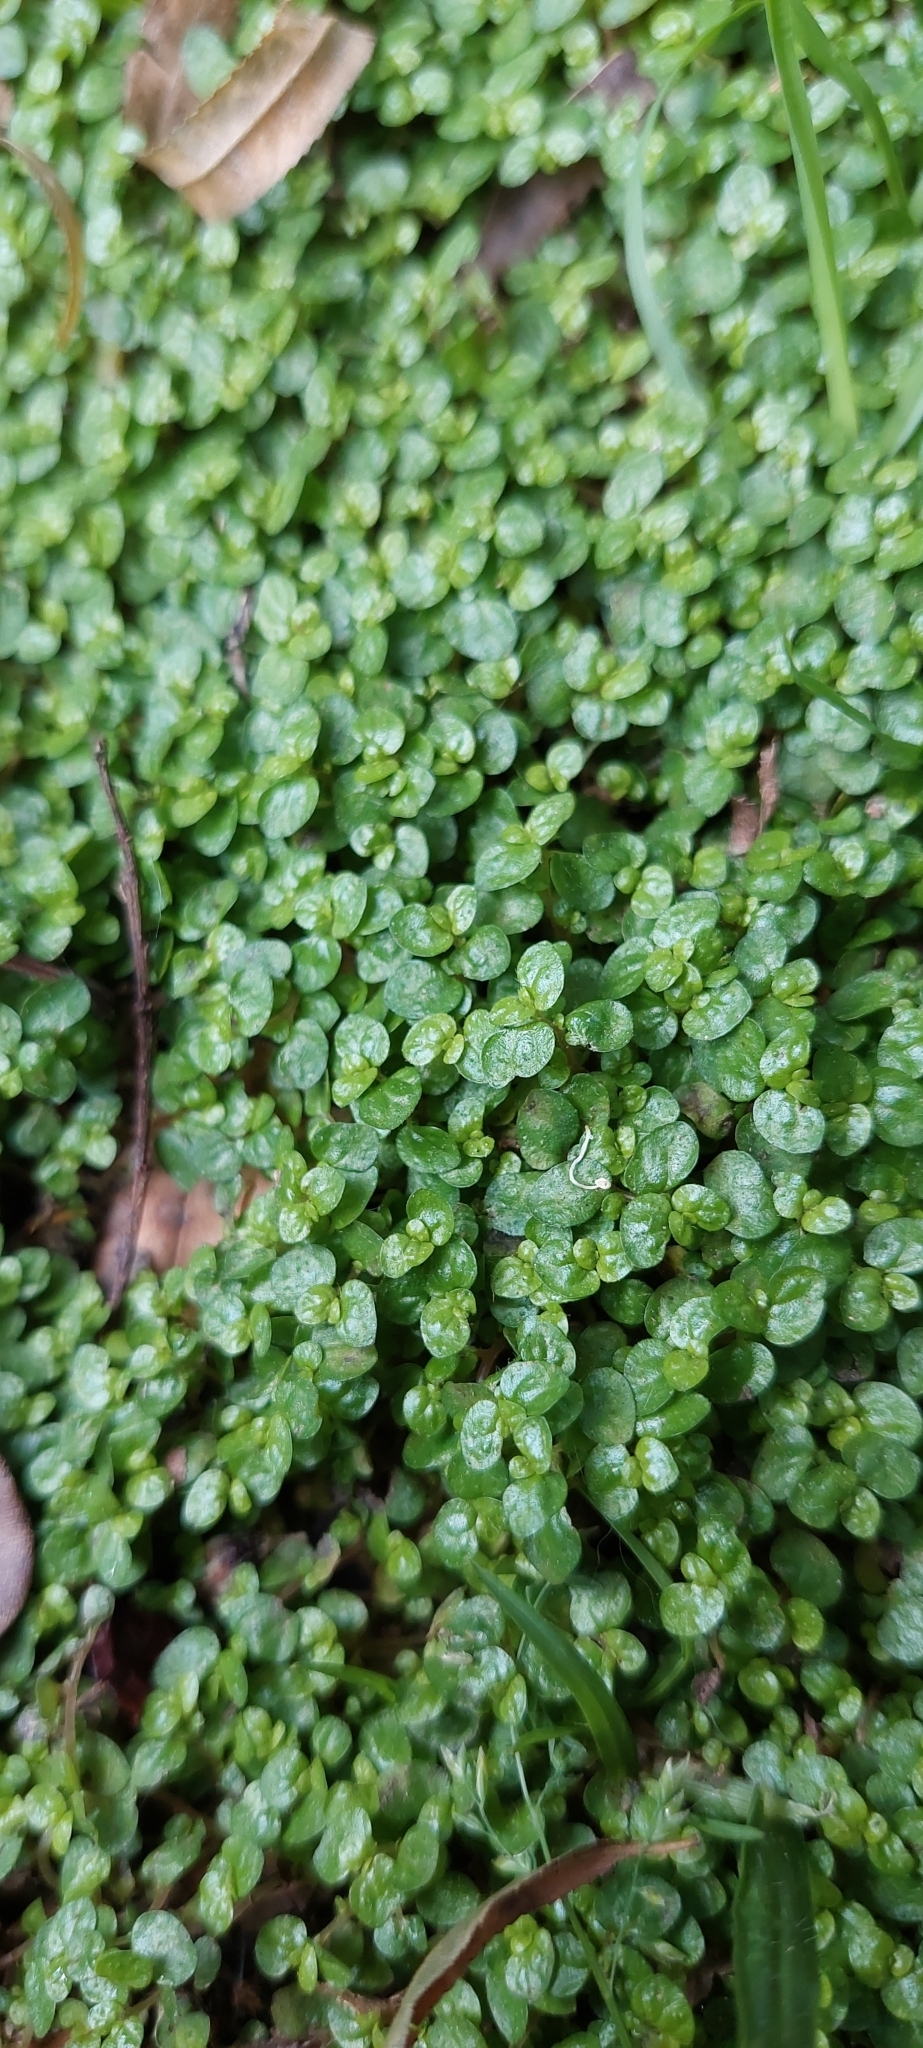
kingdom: Plantae
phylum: Tracheophyta
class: Magnoliopsida
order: Rosales
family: Urticaceae
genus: Soleirolia
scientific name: Soleirolia soleirolii
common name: Mind-your-own-business
